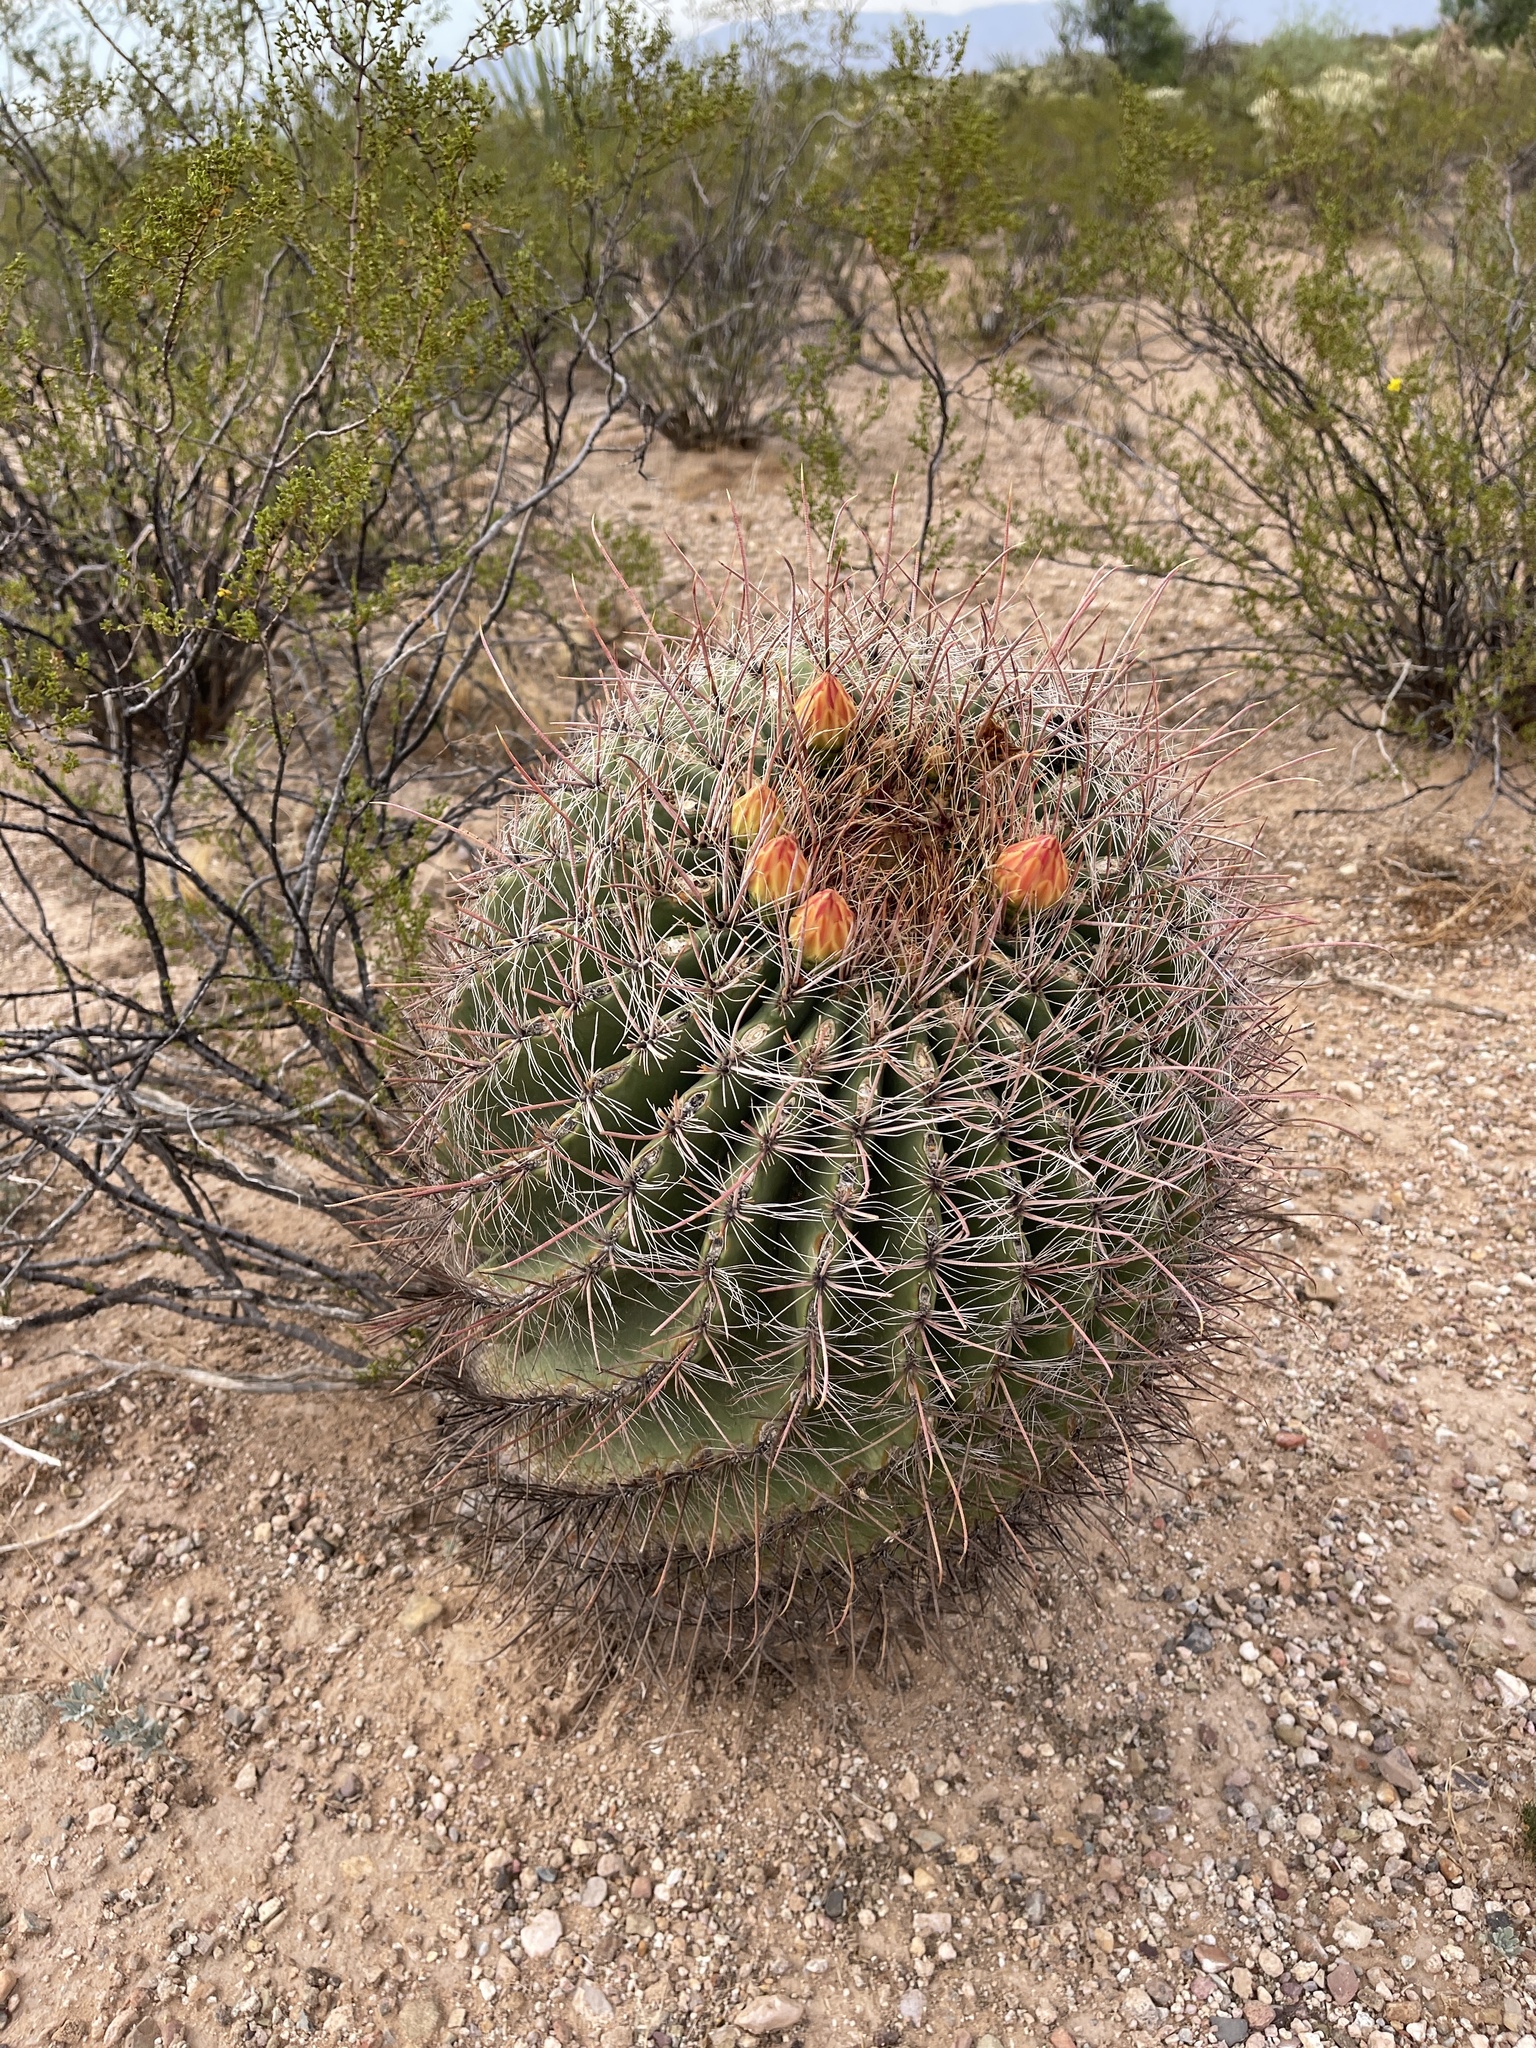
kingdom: Plantae
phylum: Tracheophyta
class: Magnoliopsida
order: Caryophyllales
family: Cactaceae
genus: Ferocactus
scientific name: Ferocactus wislizeni
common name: Candy barrel cactus
